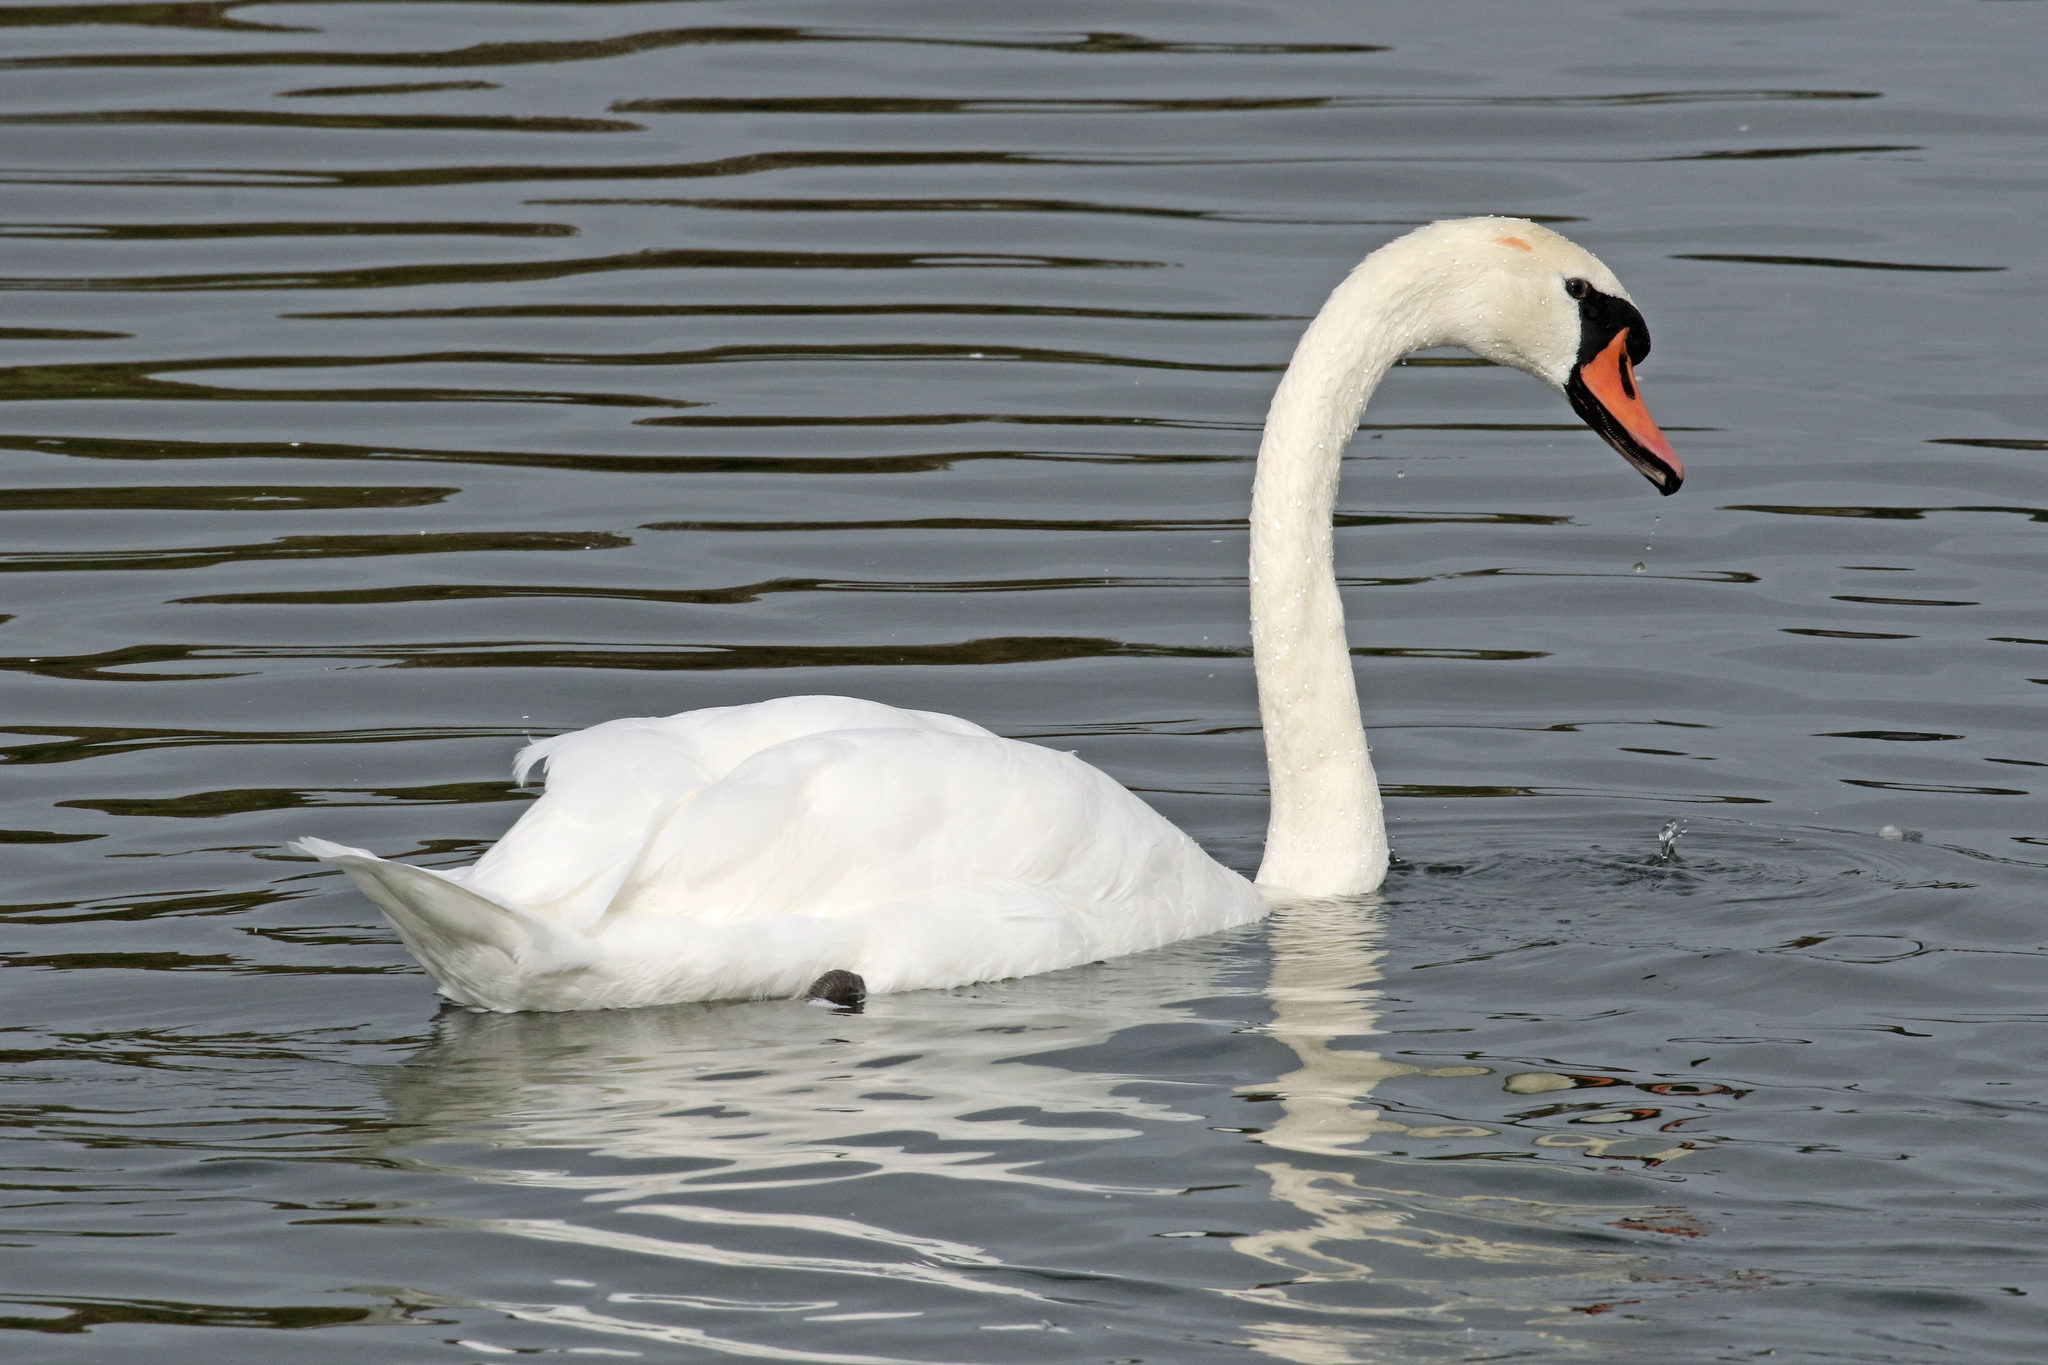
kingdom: Animalia
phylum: Chordata
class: Aves
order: Anseriformes
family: Anatidae
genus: Cygnus
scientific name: Cygnus olor
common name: Mute swan
